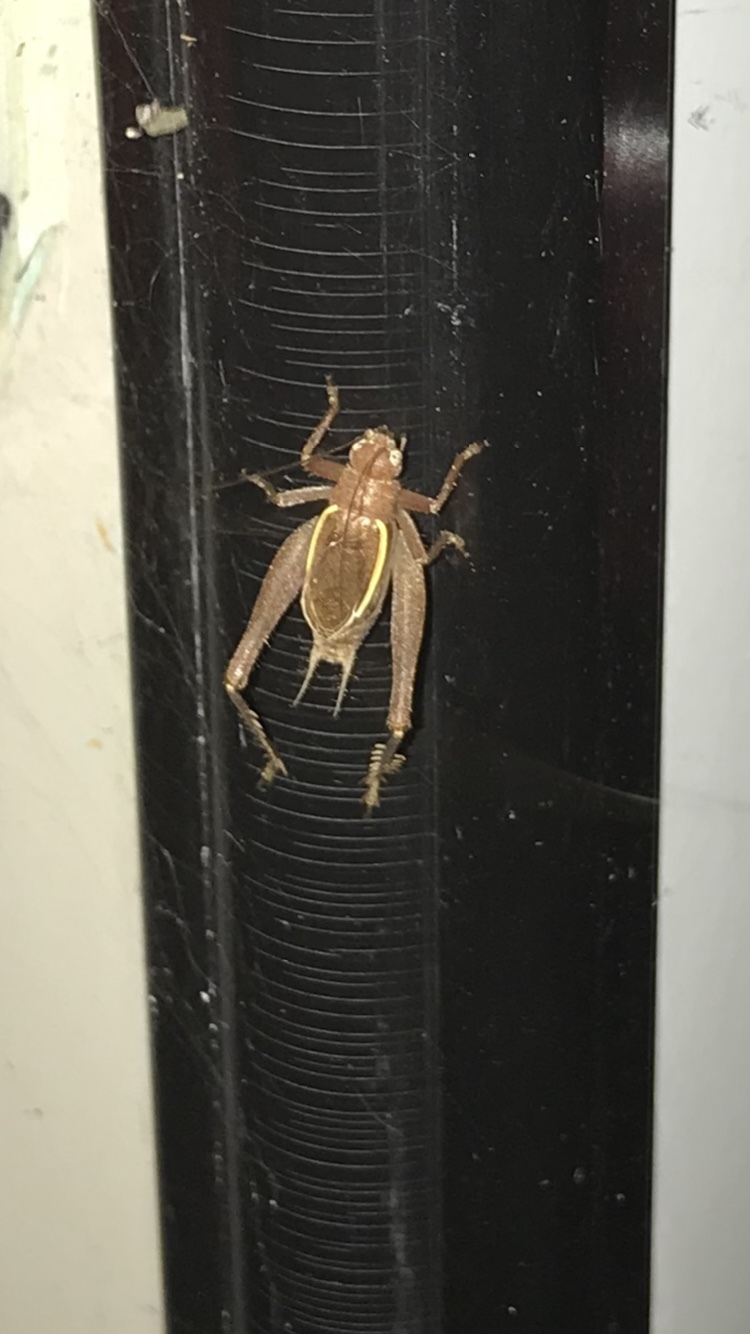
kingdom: Animalia
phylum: Arthropoda
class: Insecta
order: Orthoptera
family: Gryllidae
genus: Hapithus
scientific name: Hapithus agitator
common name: Restless bush cricket
